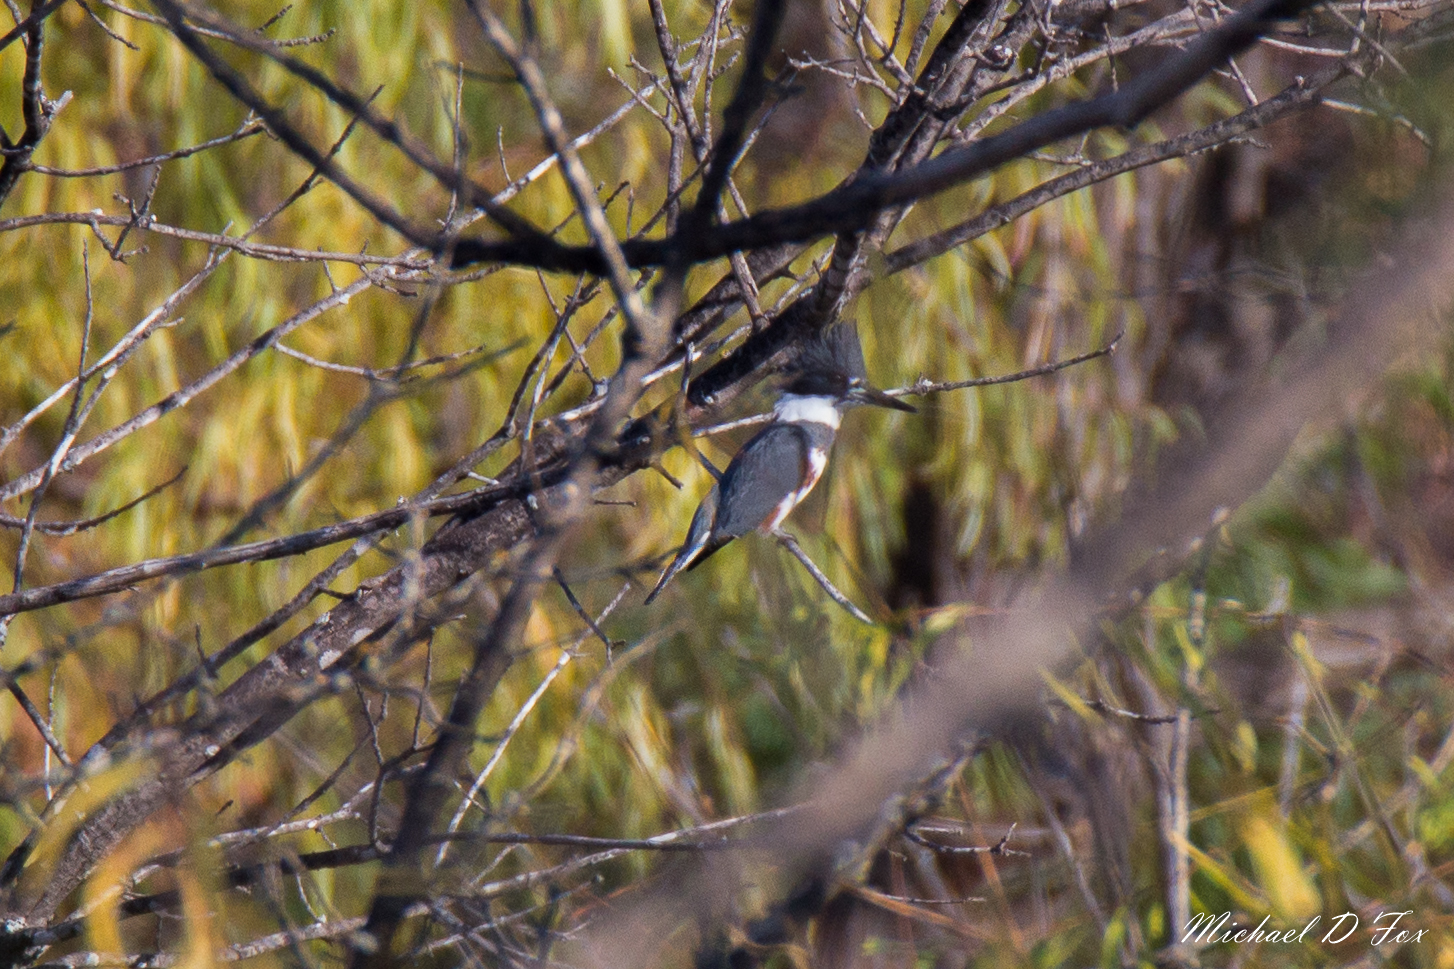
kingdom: Animalia
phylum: Chordata
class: Aves
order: Coraciiformes
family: Alcedinidae
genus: Megaceryle
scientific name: Megaceryle alcyon
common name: Belted kingfisher
